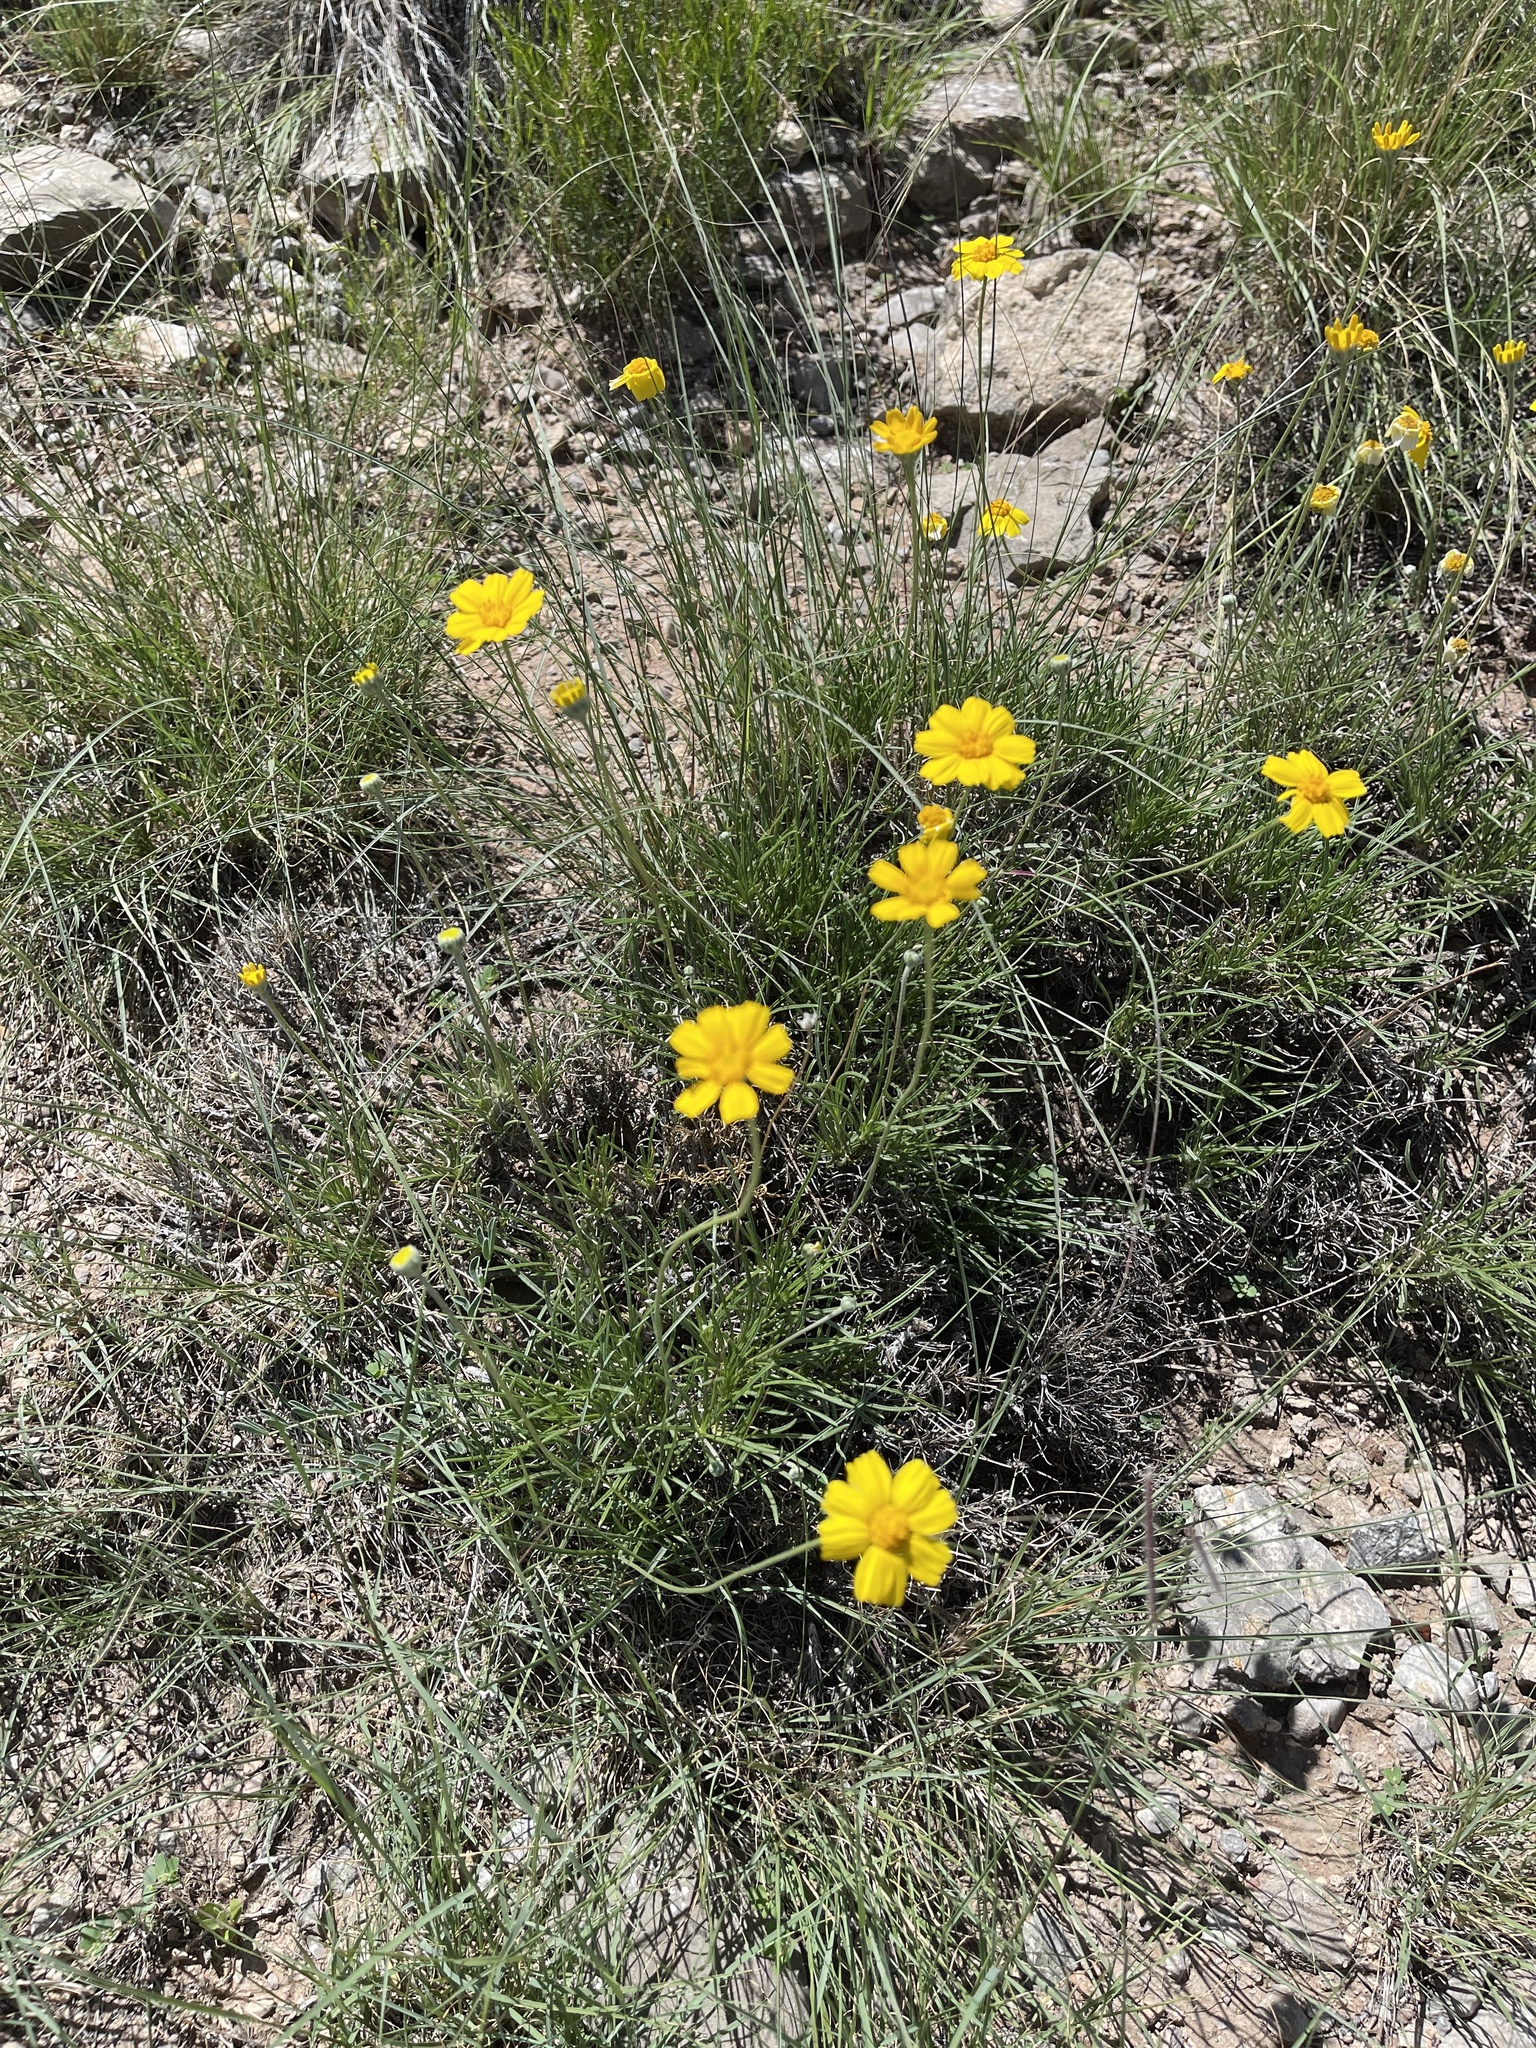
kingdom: Plantae
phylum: Tracheophyta
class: Magnoliopsida
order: Asterales
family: Asteraceae
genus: Tetraneuris
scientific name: Tetraneuris scaposa
